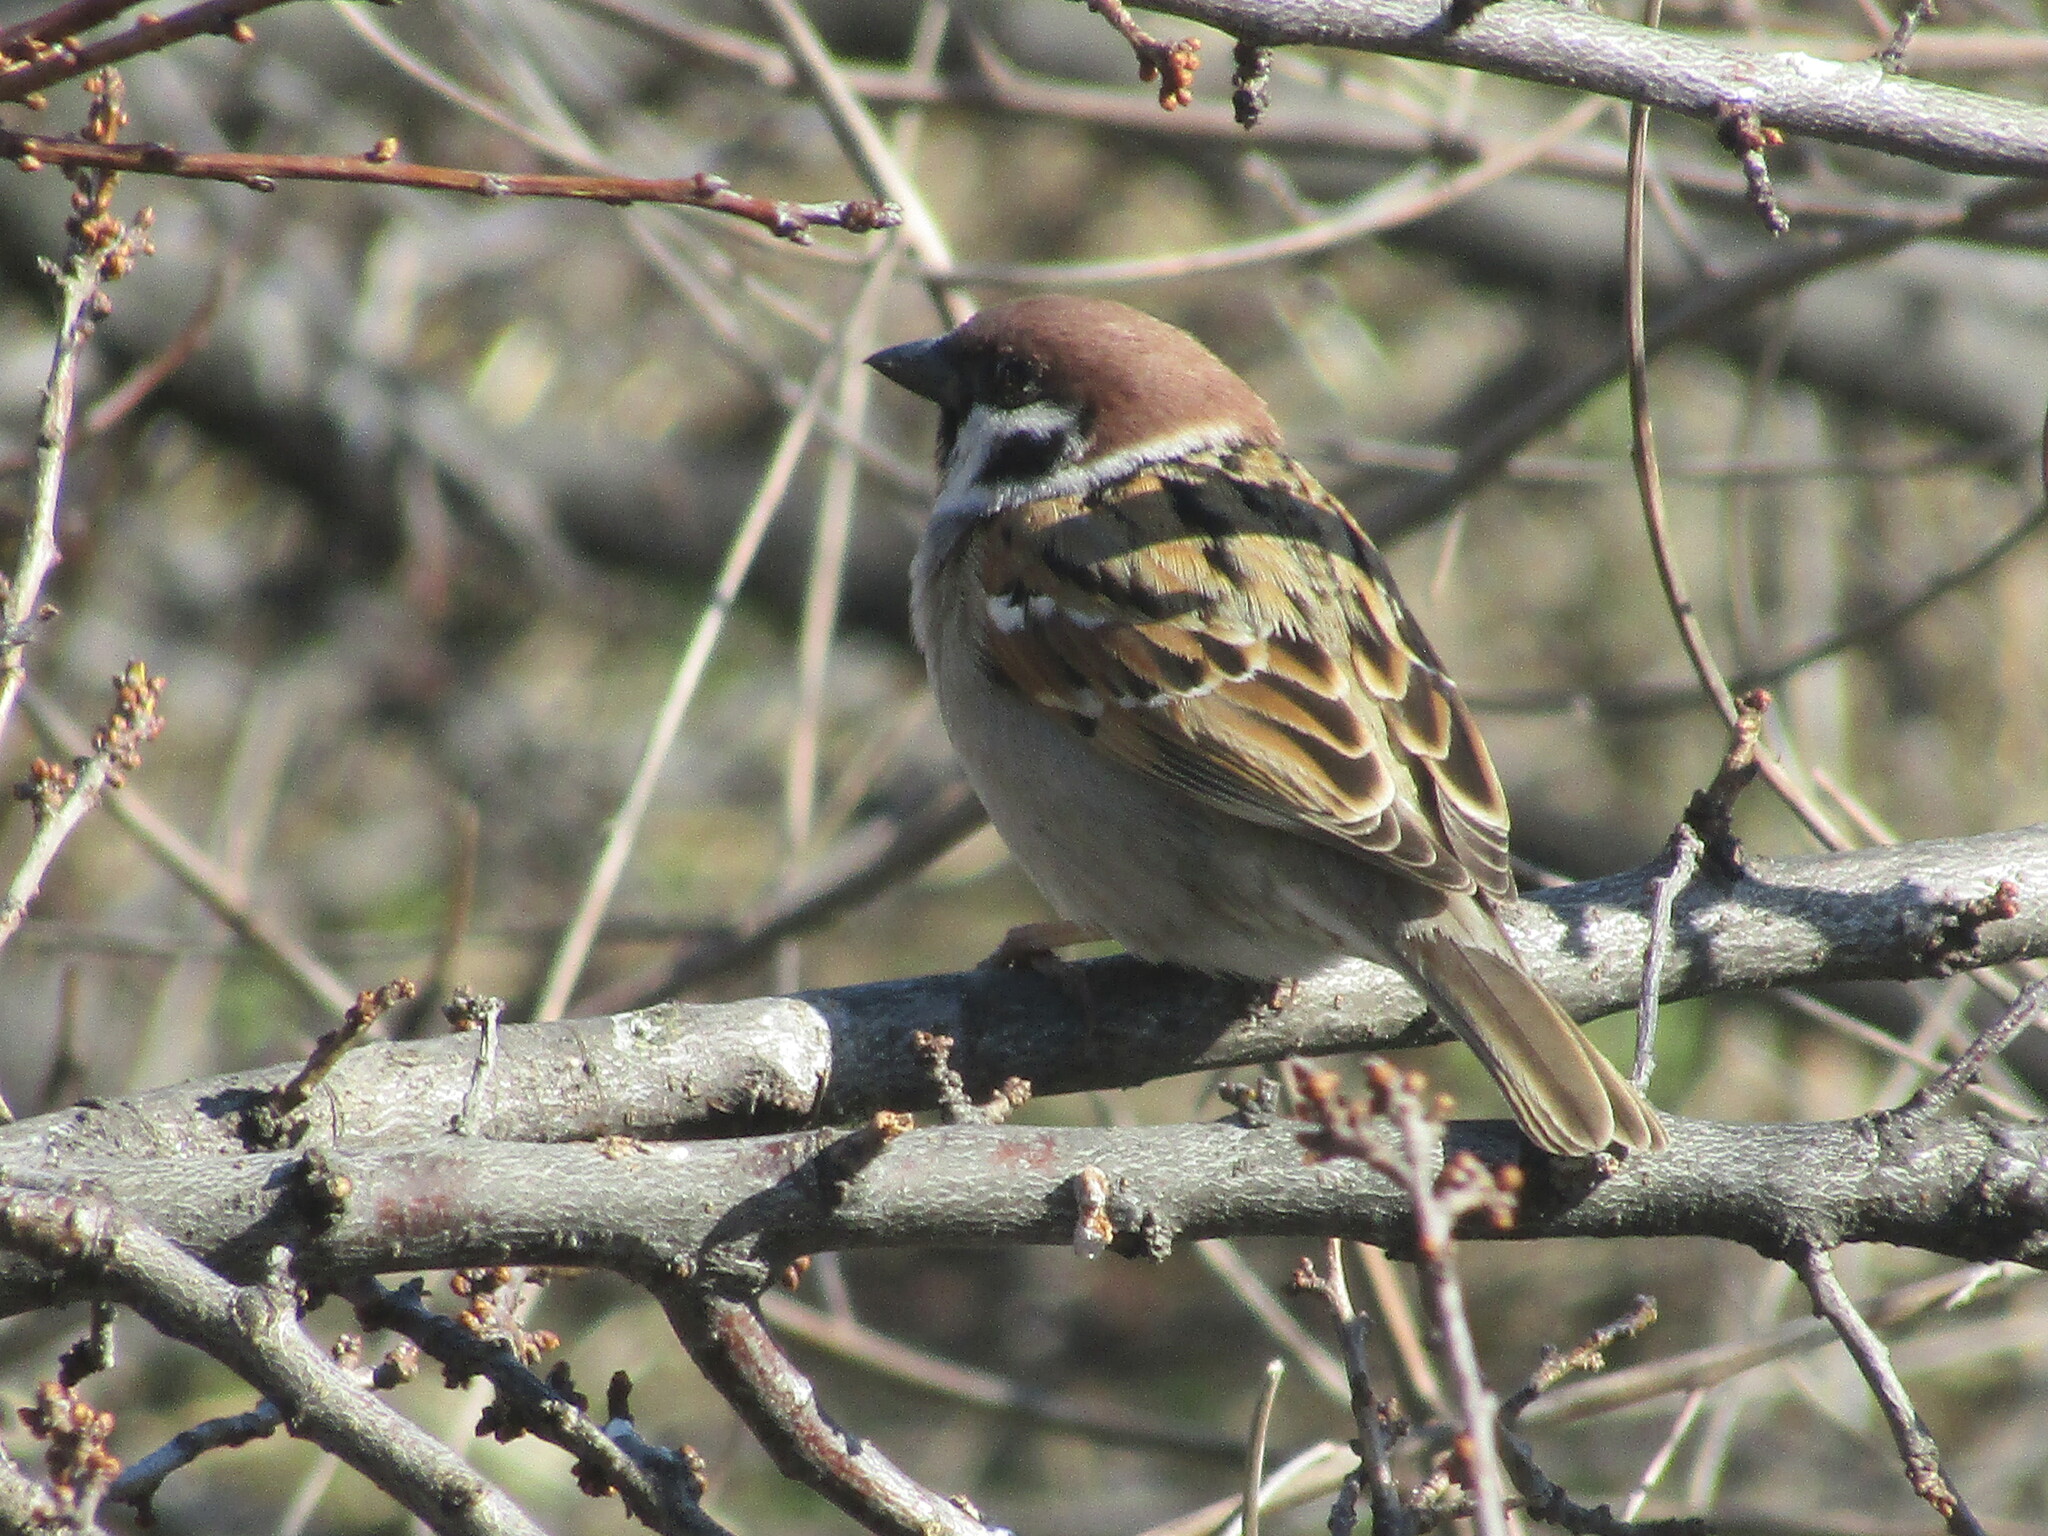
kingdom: Animalia
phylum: Chordata
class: Aves
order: Passeriformes
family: Passeridae
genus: Passer
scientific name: Passer montanus
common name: Eurasian tree sparrow
